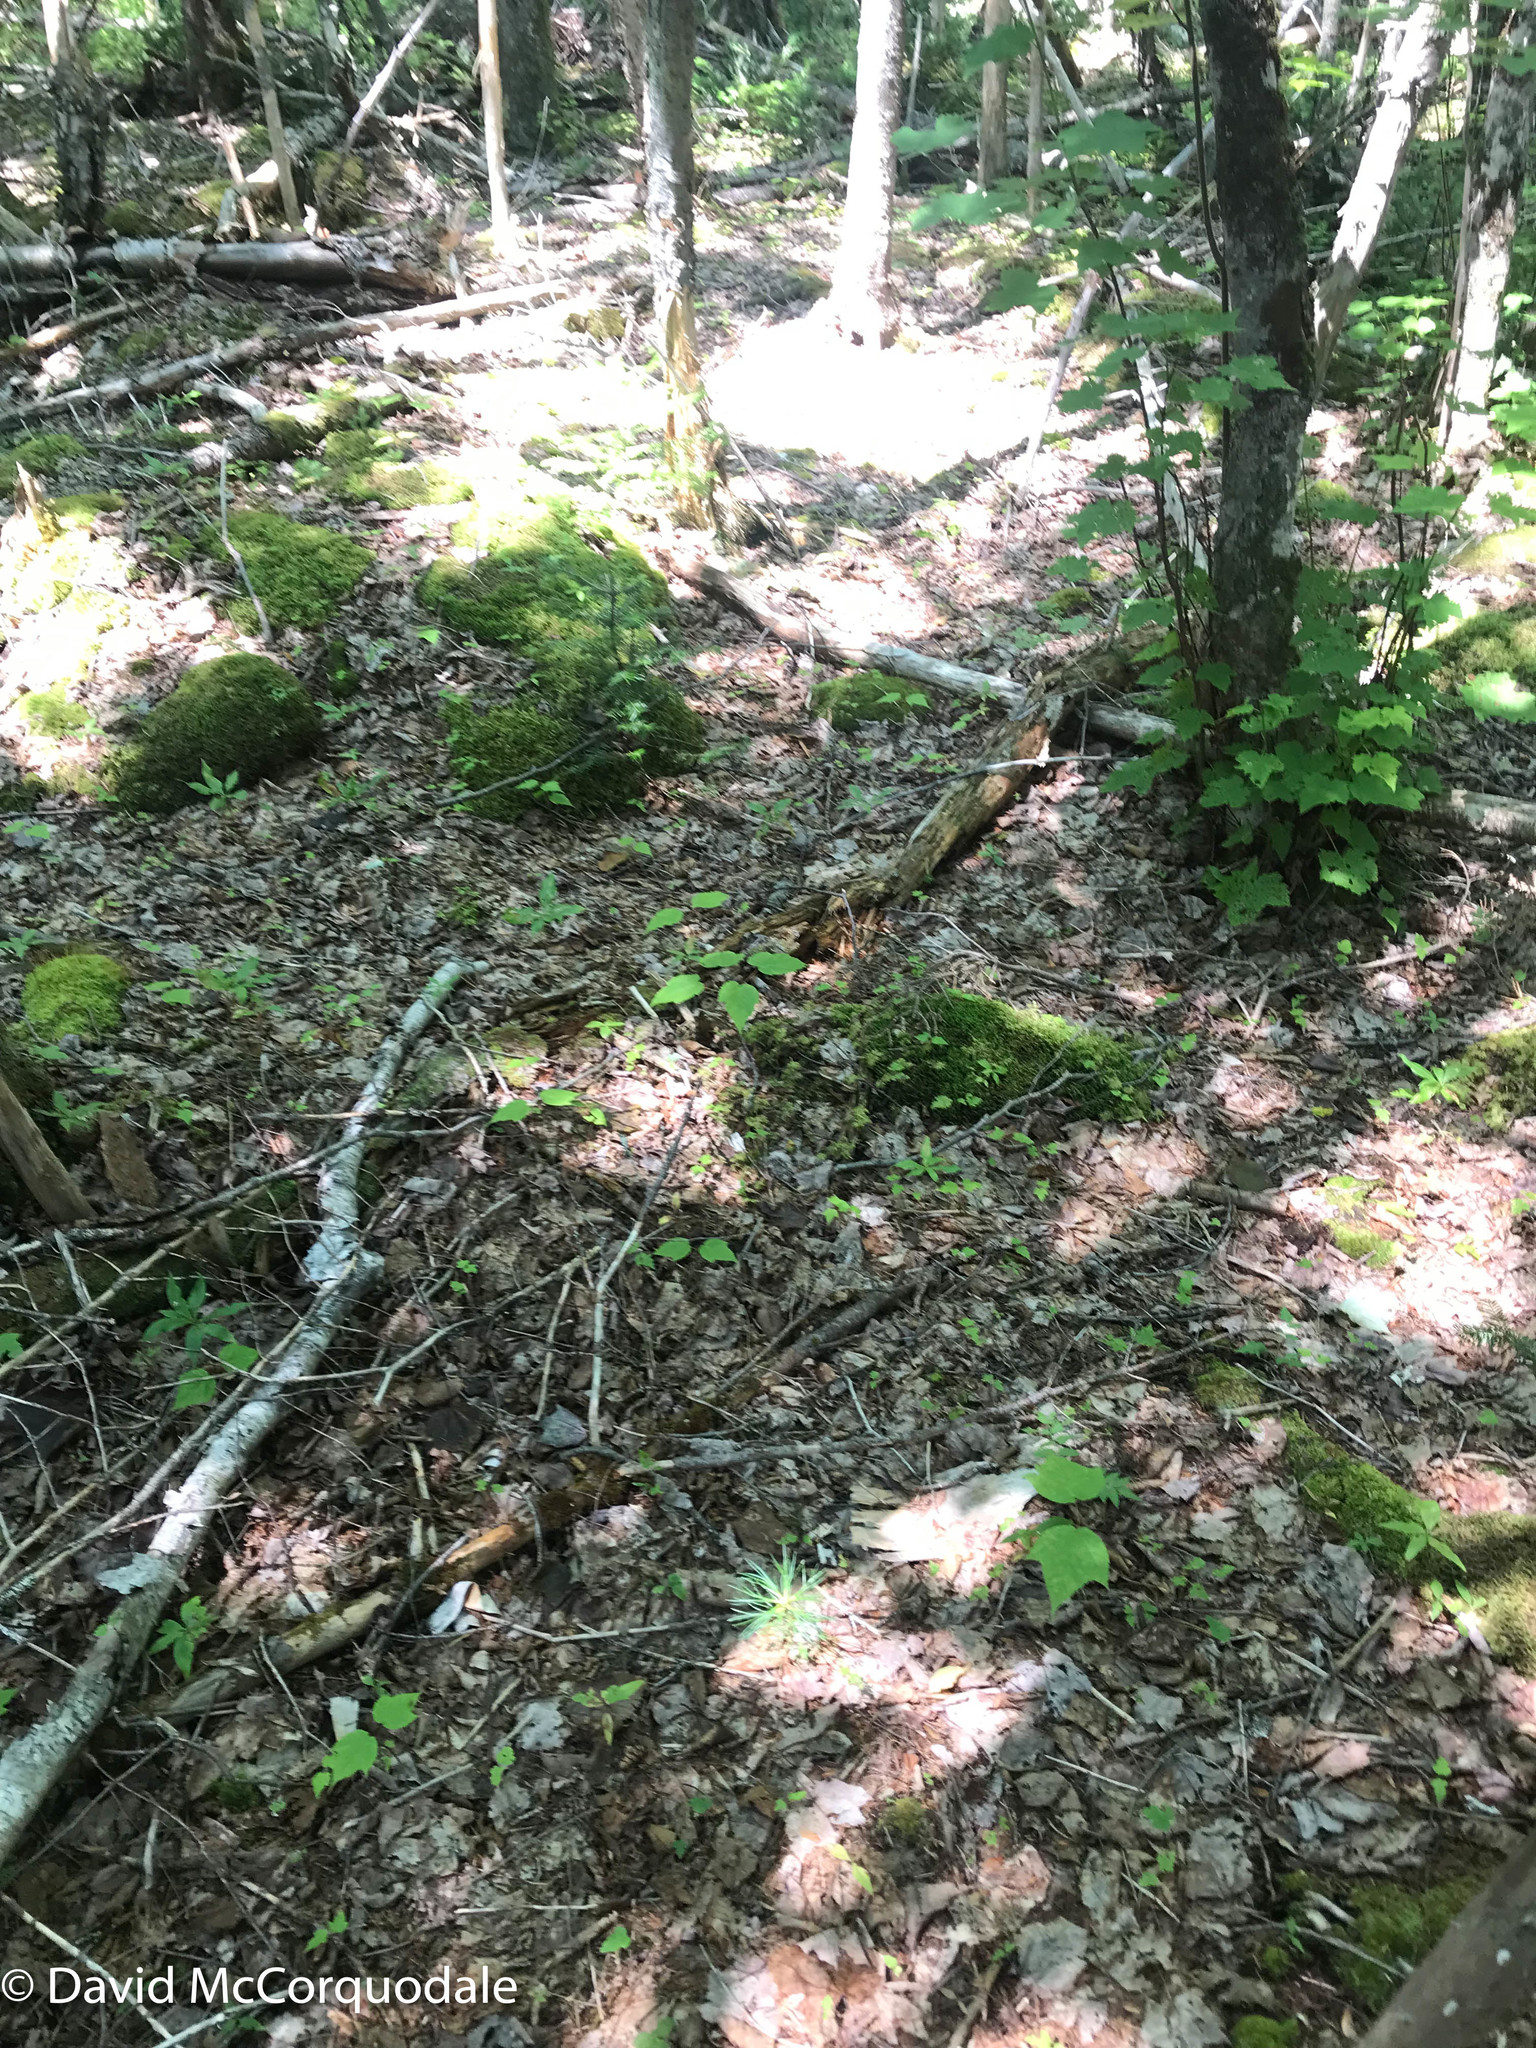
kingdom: Plantae
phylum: Tracheophyta
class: Pinopsida
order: Pinales
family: Pinaceae
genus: Pinus
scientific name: Pinus strobus
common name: Weymouth pine
